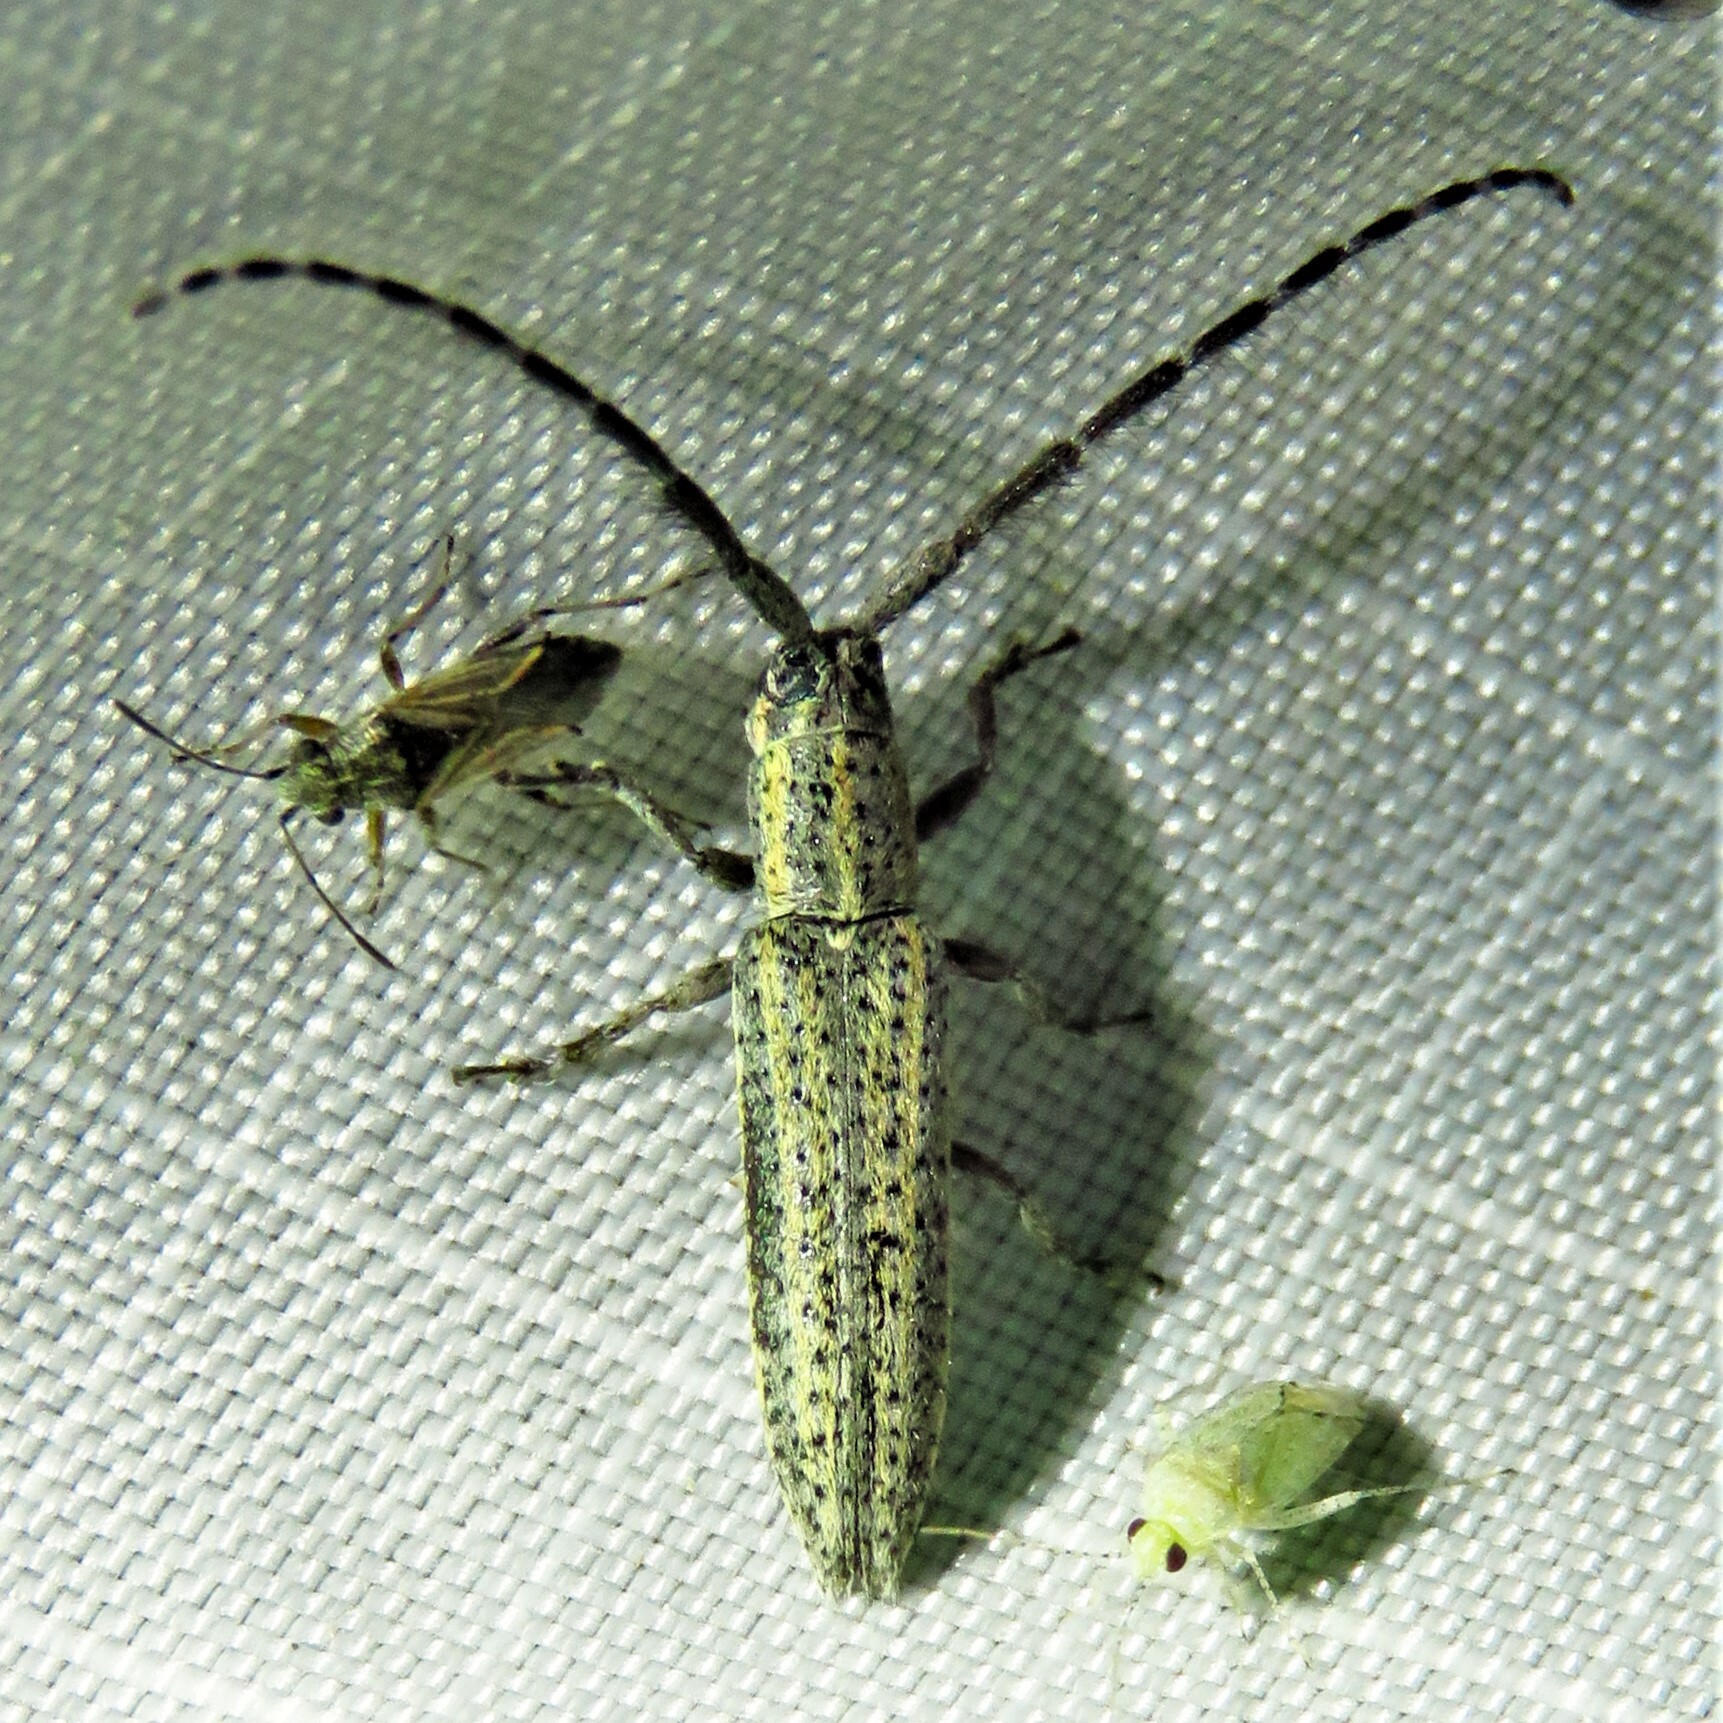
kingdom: Animalia
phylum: Arthropoda
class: Insecta
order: Coleoptera
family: Cerambycidae
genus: Dorcasta
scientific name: Dorcasta cinerea
